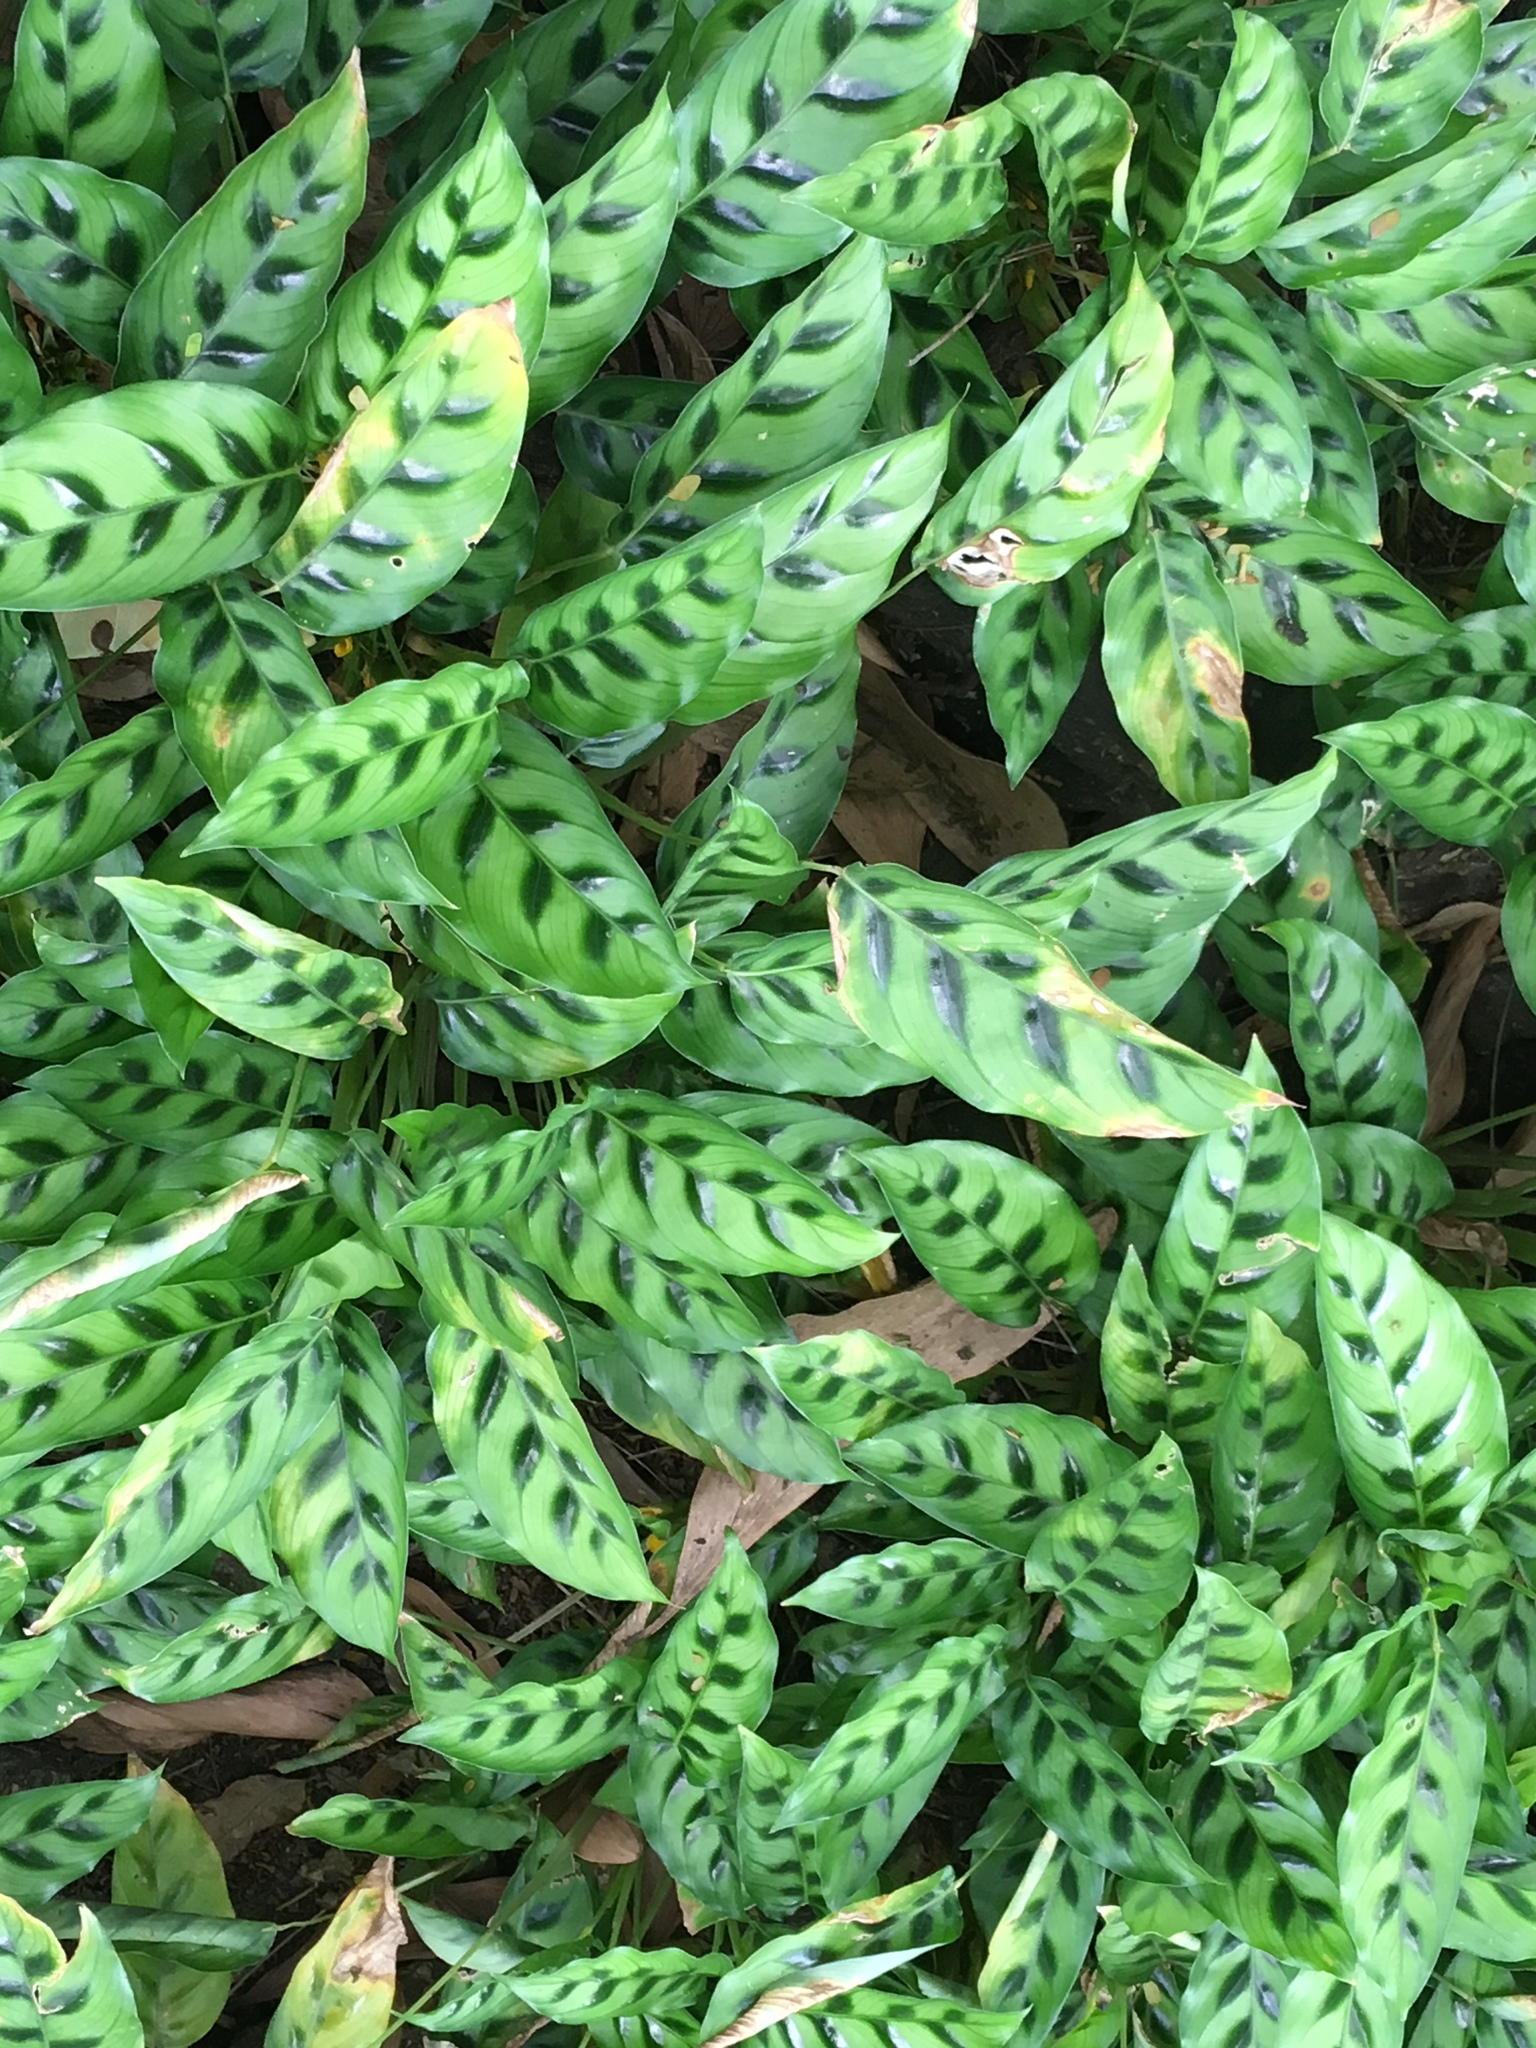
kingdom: Plantae
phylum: Tracheophyta
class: Liliopsida
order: Zingiberales
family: Marantaceae
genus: Goeppertia
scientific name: Goeppertia concinna
